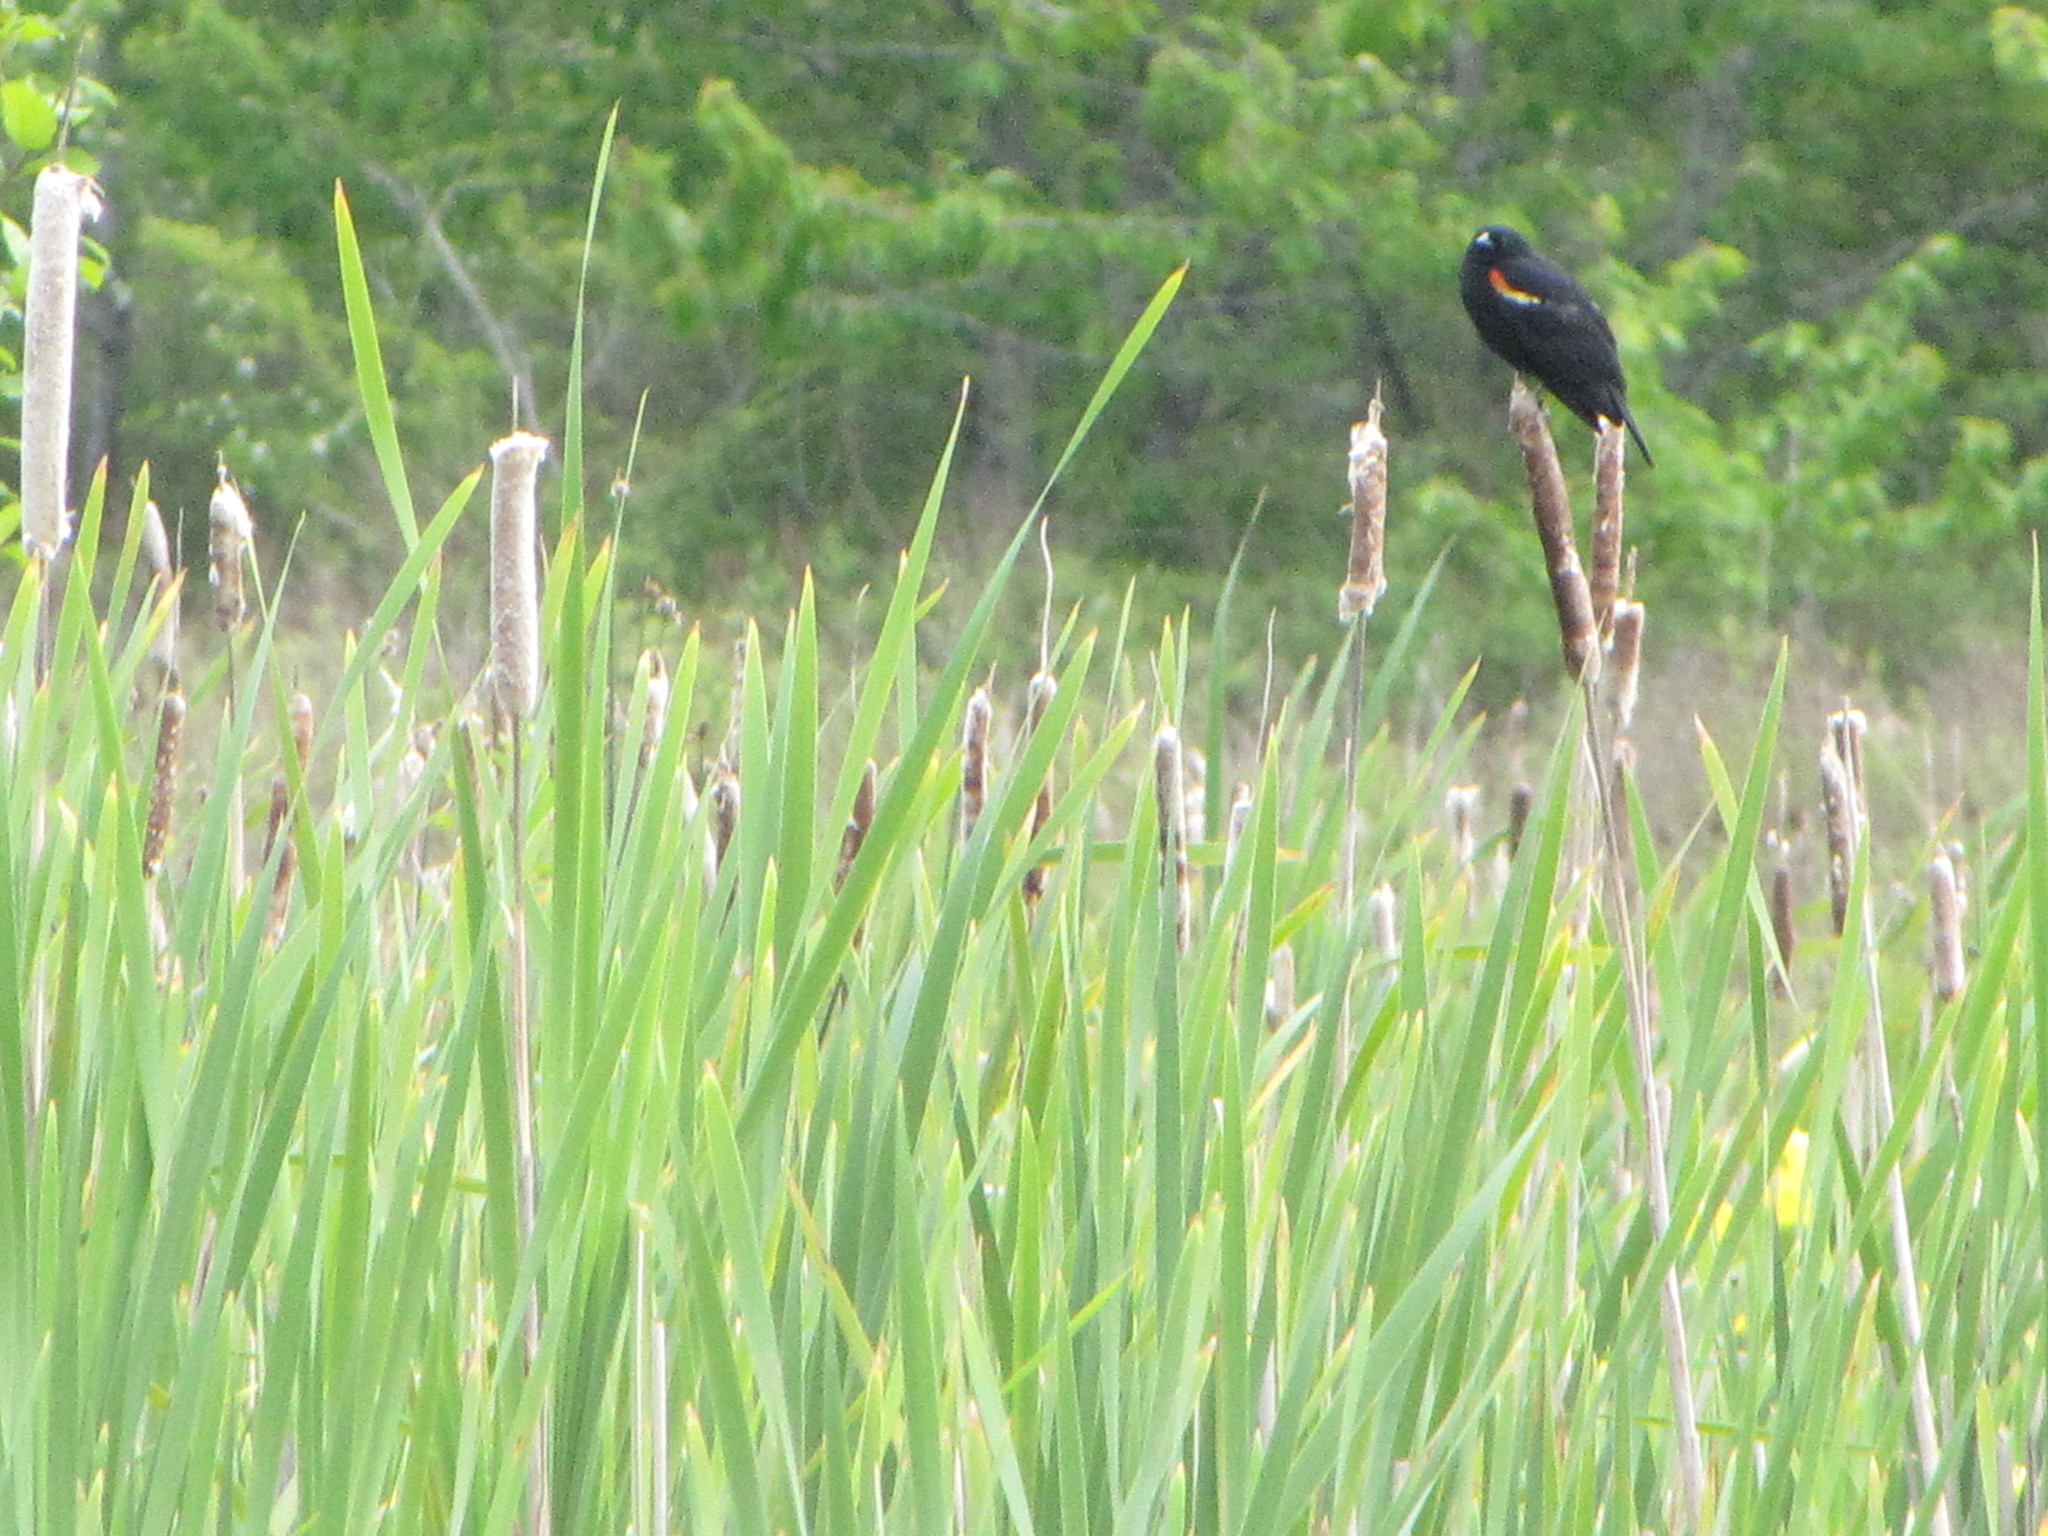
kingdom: Animalia
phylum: Chordata
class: Aves
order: Passeriformes
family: Icteridae
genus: Agelaius
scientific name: Agelaius phoeniceus
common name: Red-winged blackbird
